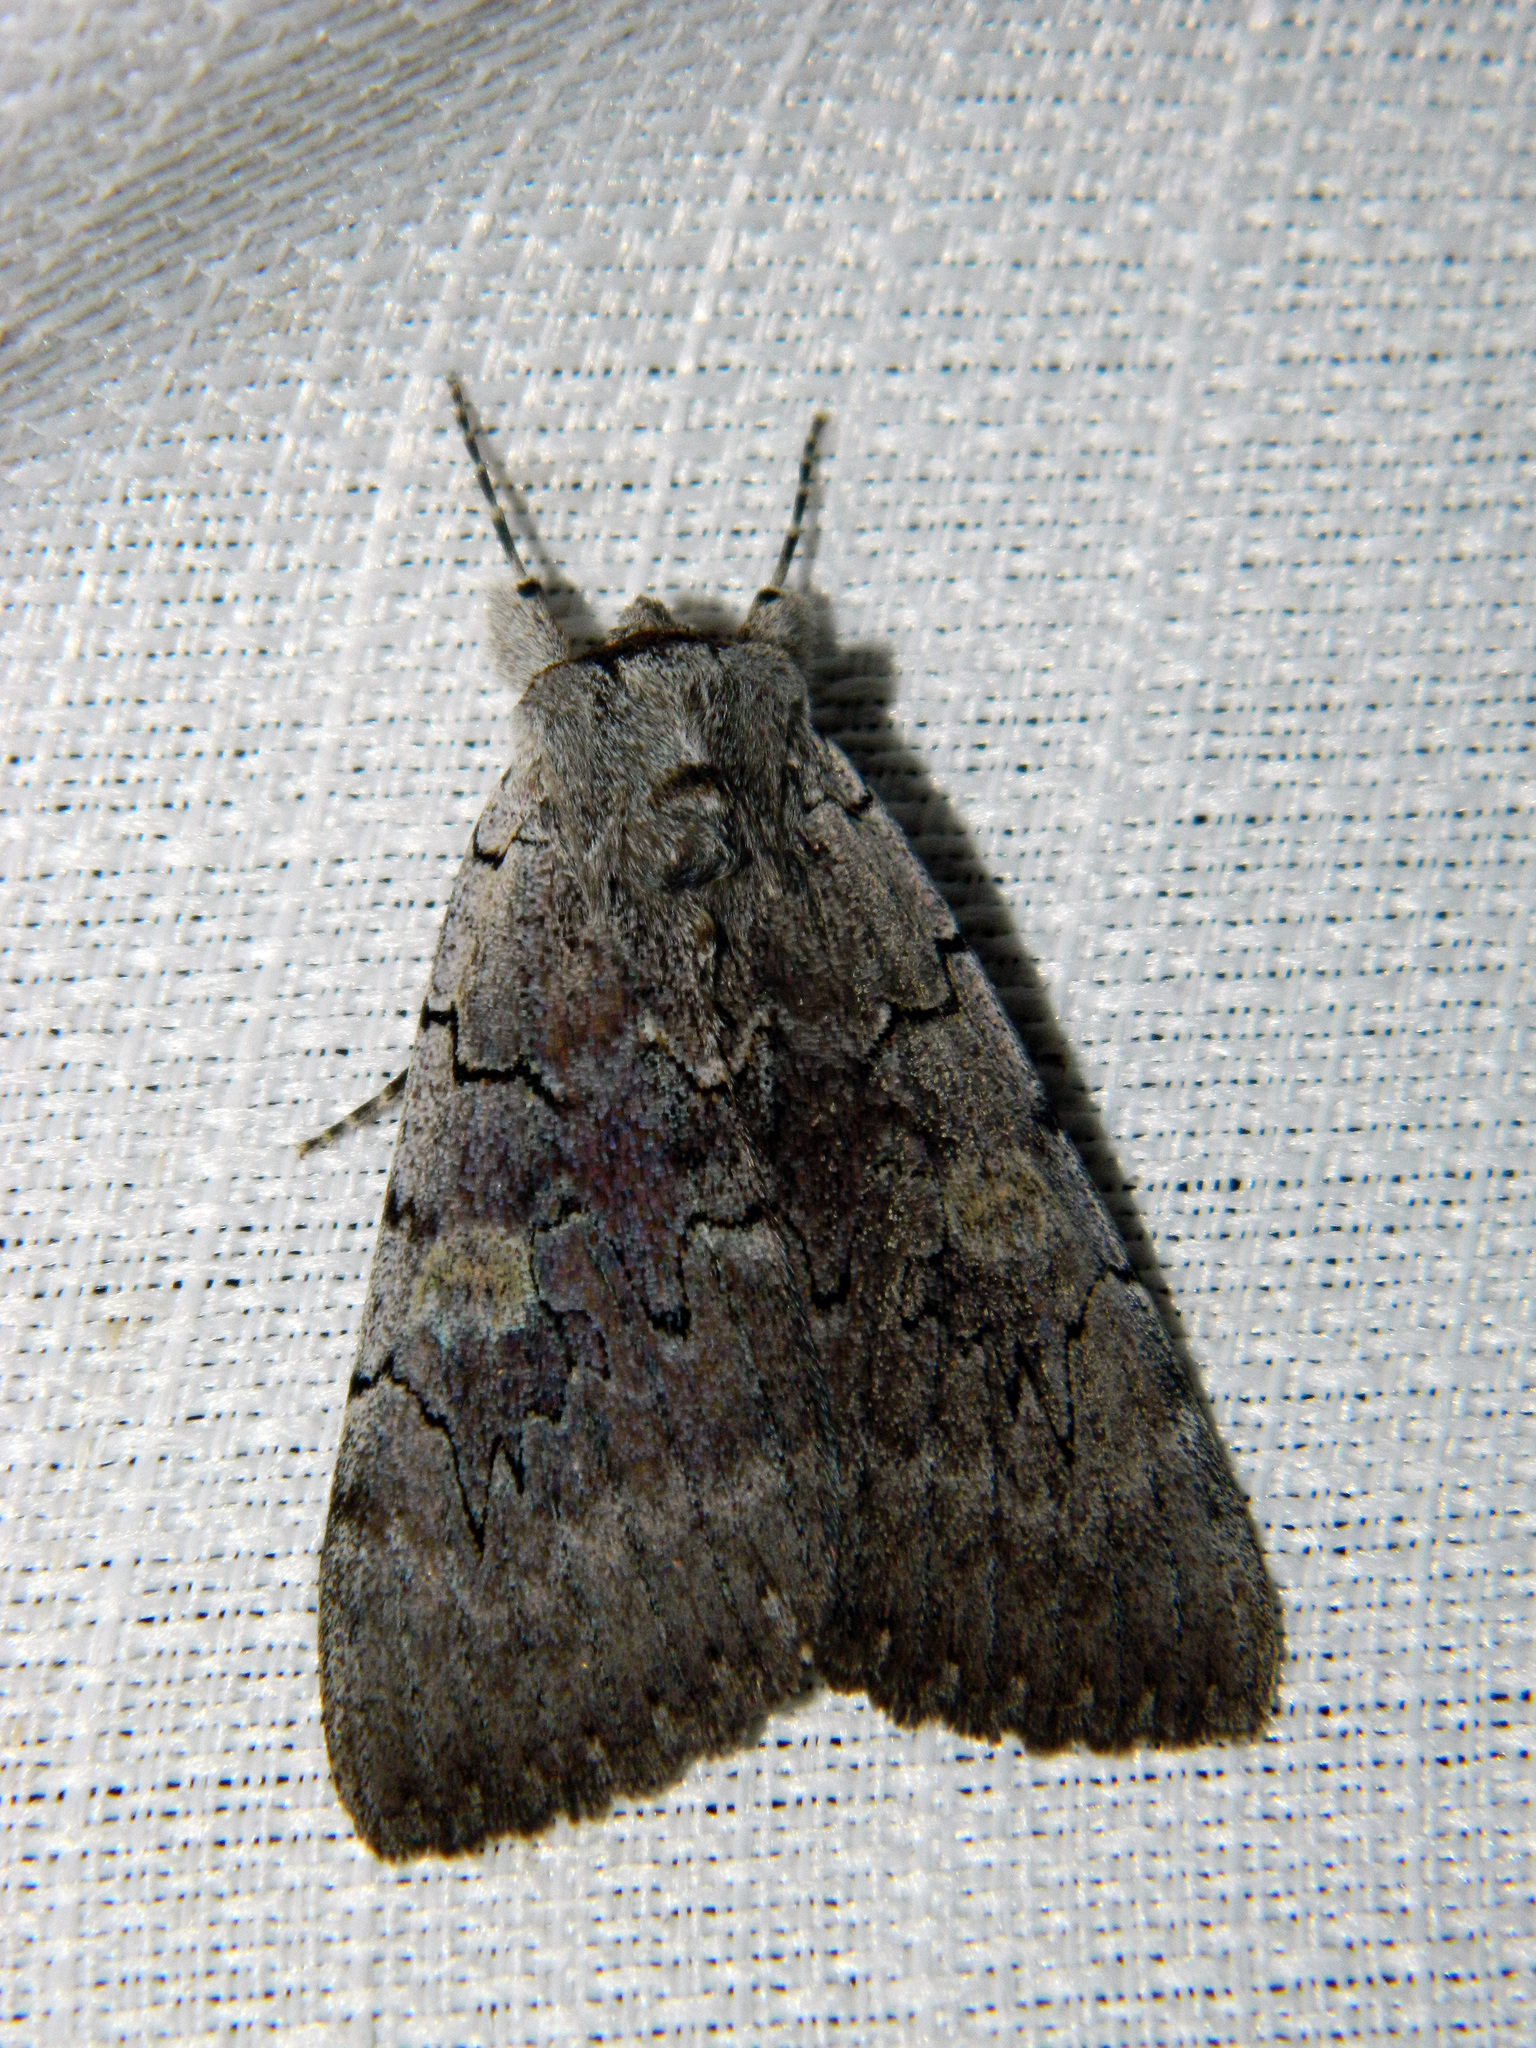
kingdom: Animalia
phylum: Arthropoda
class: Insecta
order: Lepidoptera
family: Erebidae
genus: Catocala
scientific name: Catocala concumbens
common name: Pink underwing
